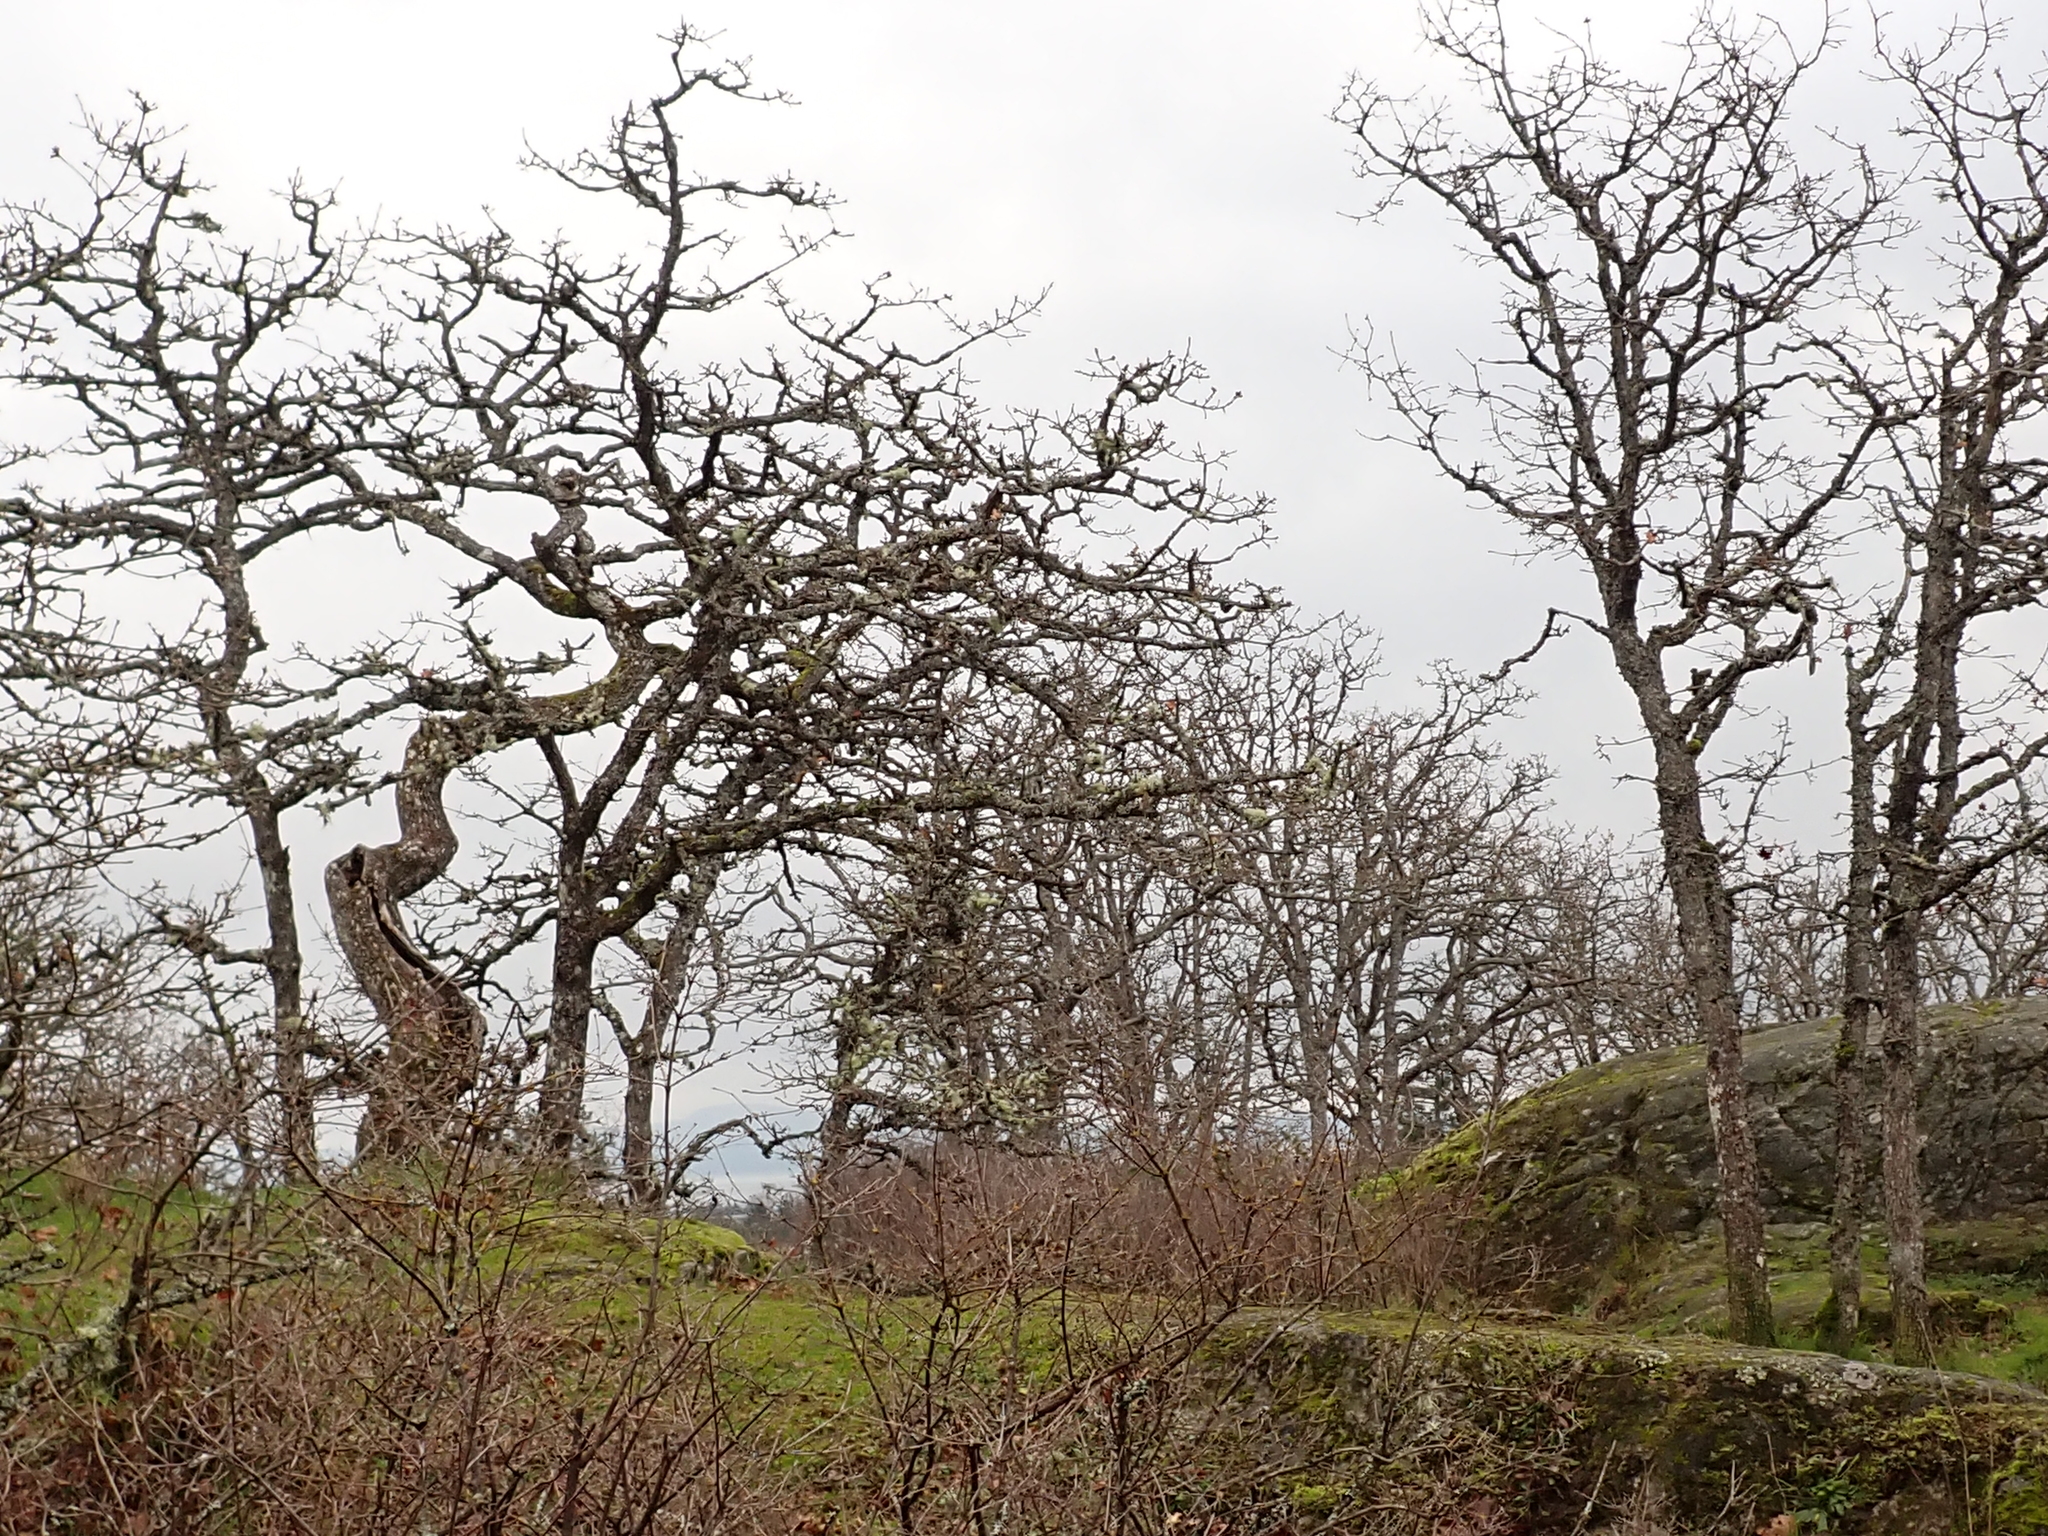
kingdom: Plantae
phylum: Tracheophyta
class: Magnoliopsida
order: Fagales
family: Fagaceae
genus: Quercus
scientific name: Quercus garryana
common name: Garry oak
